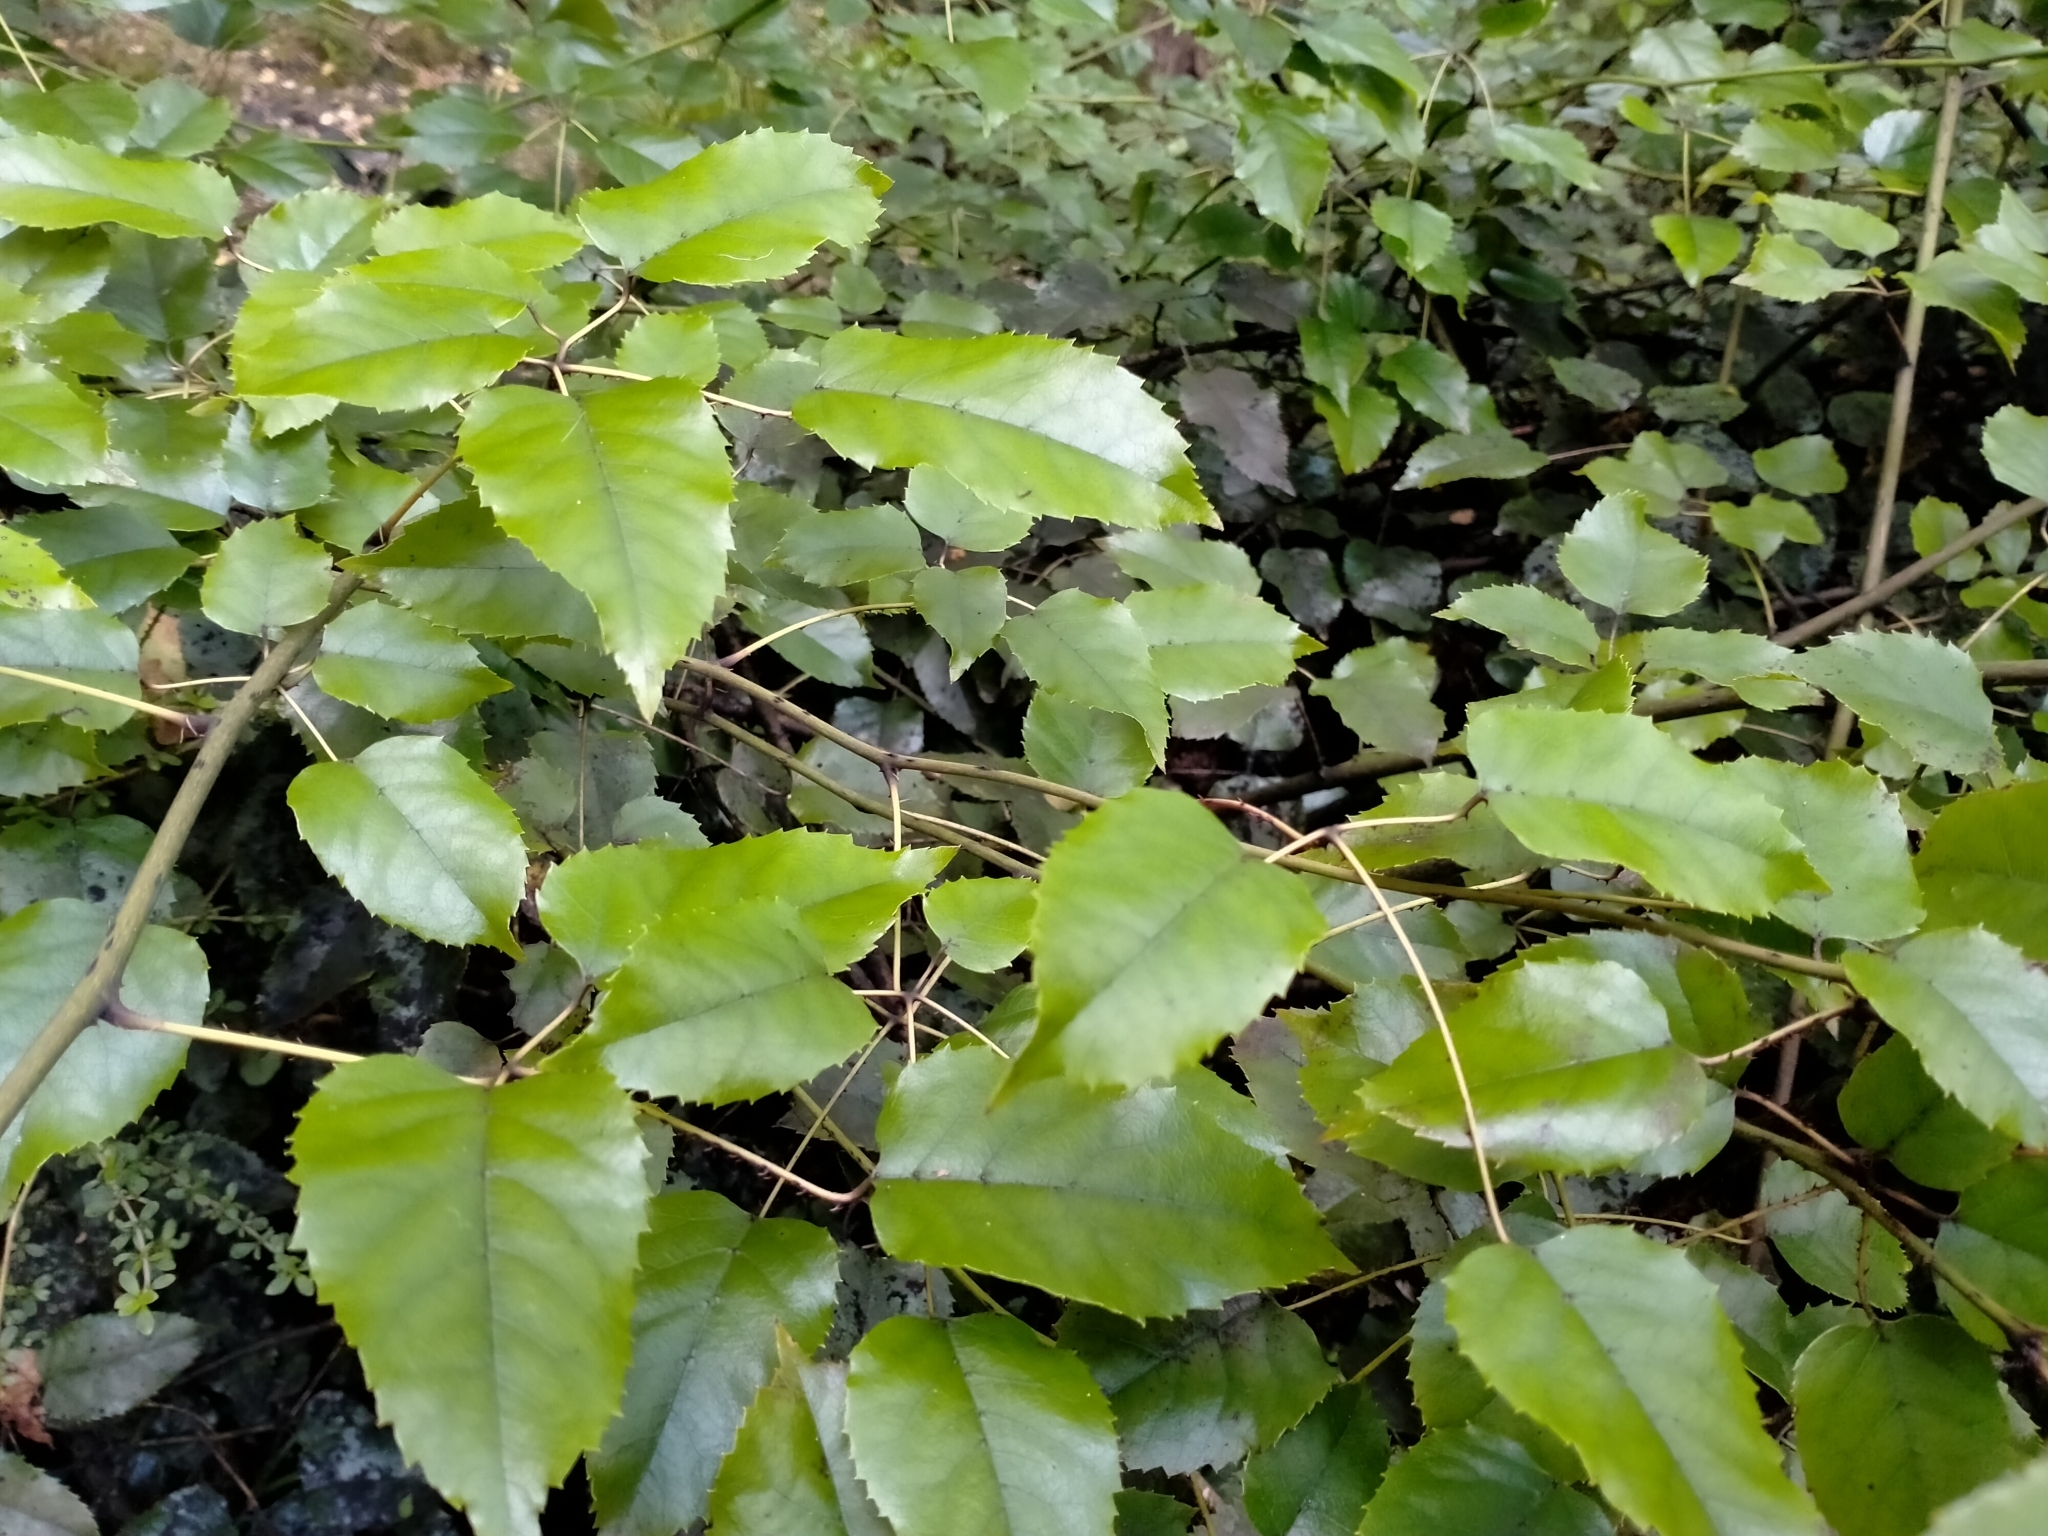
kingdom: Plantae
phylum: Tracheophyta
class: Magnoliopsida
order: Rosales
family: Rosaceae
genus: Rubus
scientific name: Rubus cissoides
